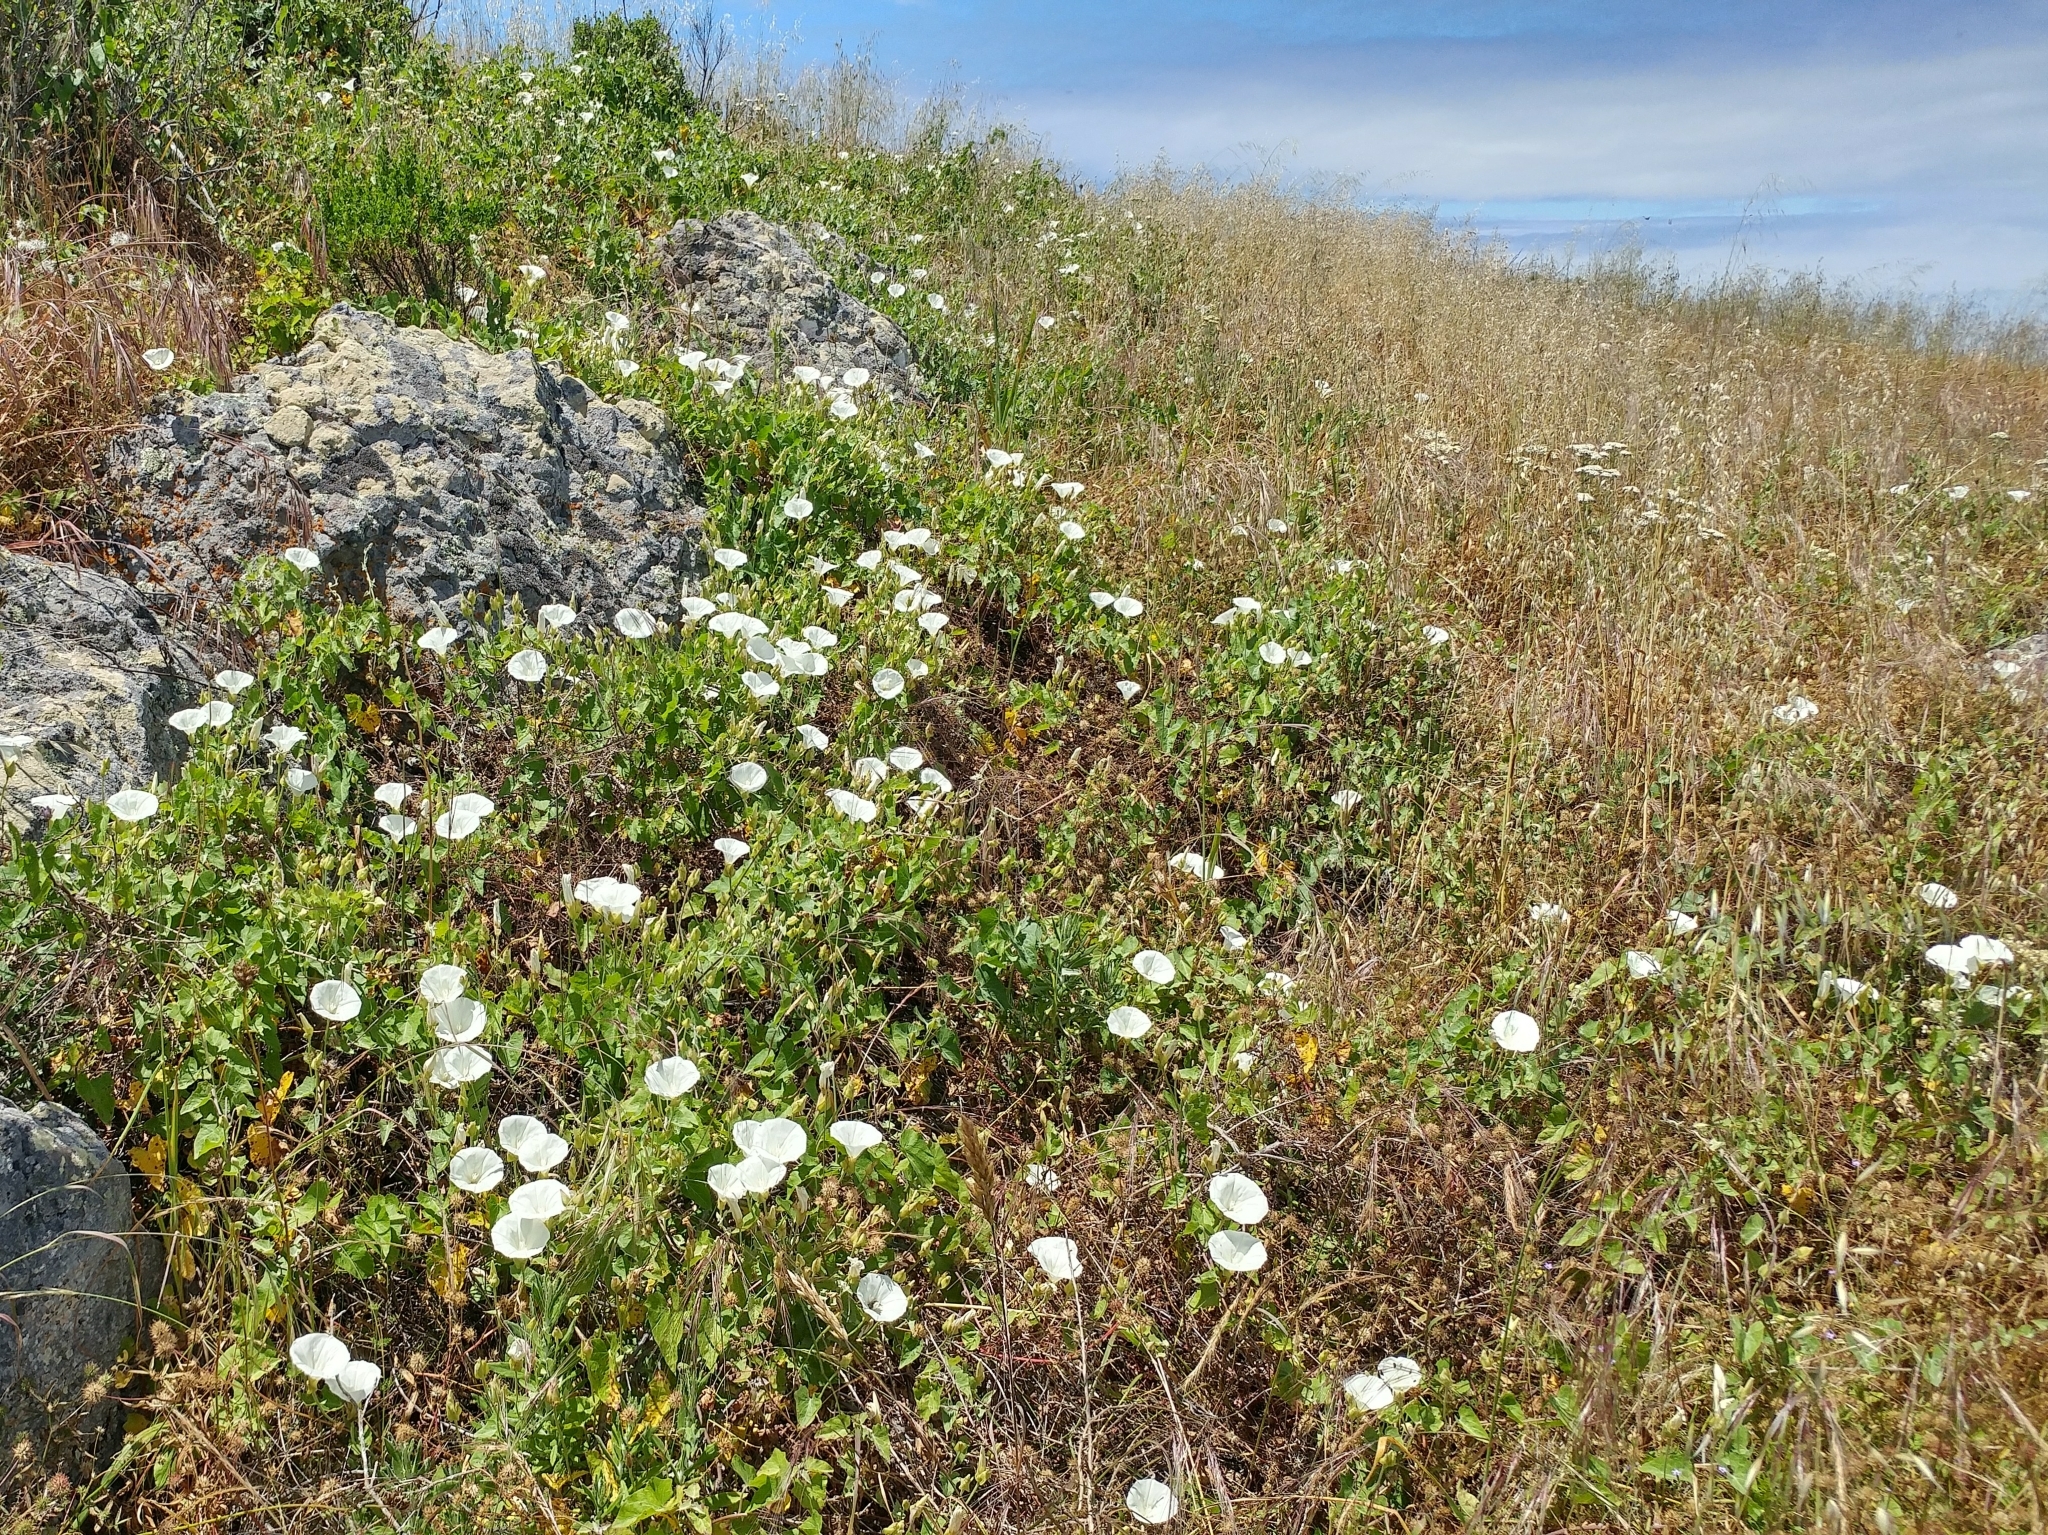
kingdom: Plantae
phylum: Tracheophyta
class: Magnoliopsida
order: Solanales
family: Convolvulaceae
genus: Calystegia
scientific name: Calystegia macrostegia
